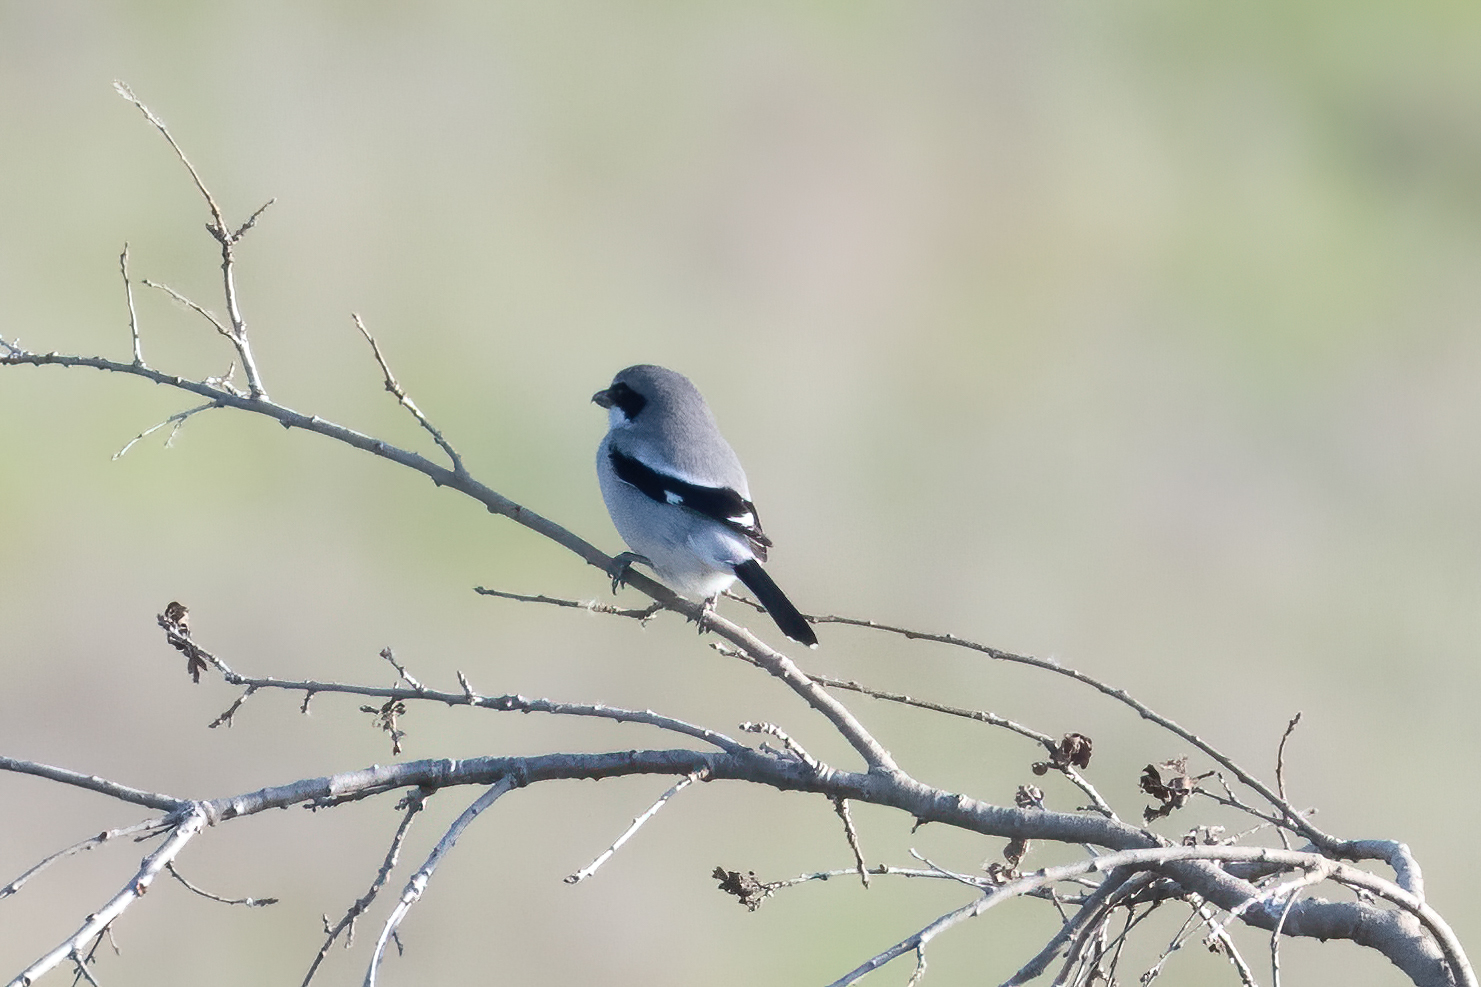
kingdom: Animalia
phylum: Chordata
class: Aves
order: Passeriformes
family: Laniidae
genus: Lanius
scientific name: Lanius ludovicianus
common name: Loggerhead shrike
